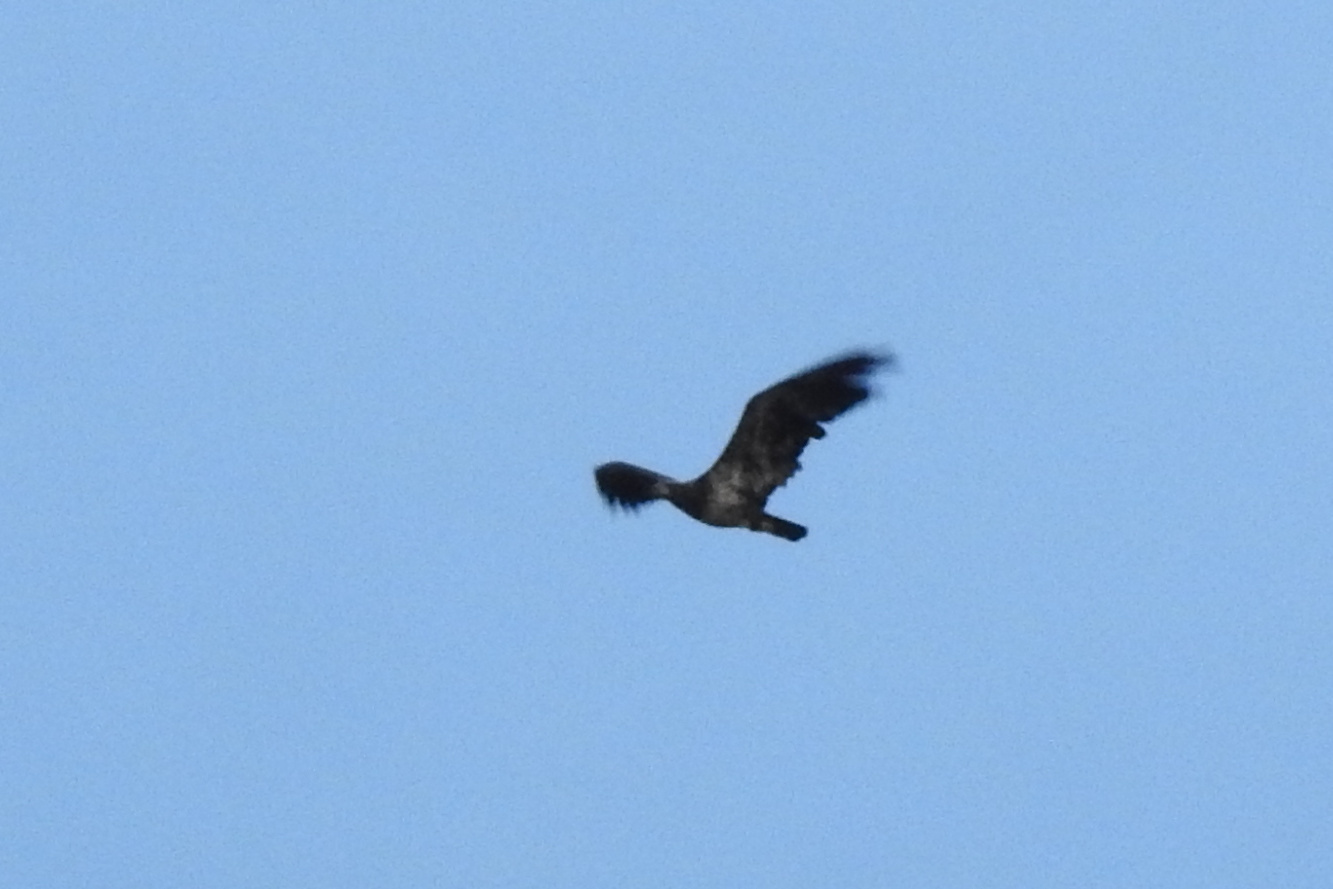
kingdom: Animalia
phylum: Chordata
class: Aves
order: Accipitriformes
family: Accipitridae
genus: Haliaeetus
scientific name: Haliaeetus leucocephalus
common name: Bald eagle
